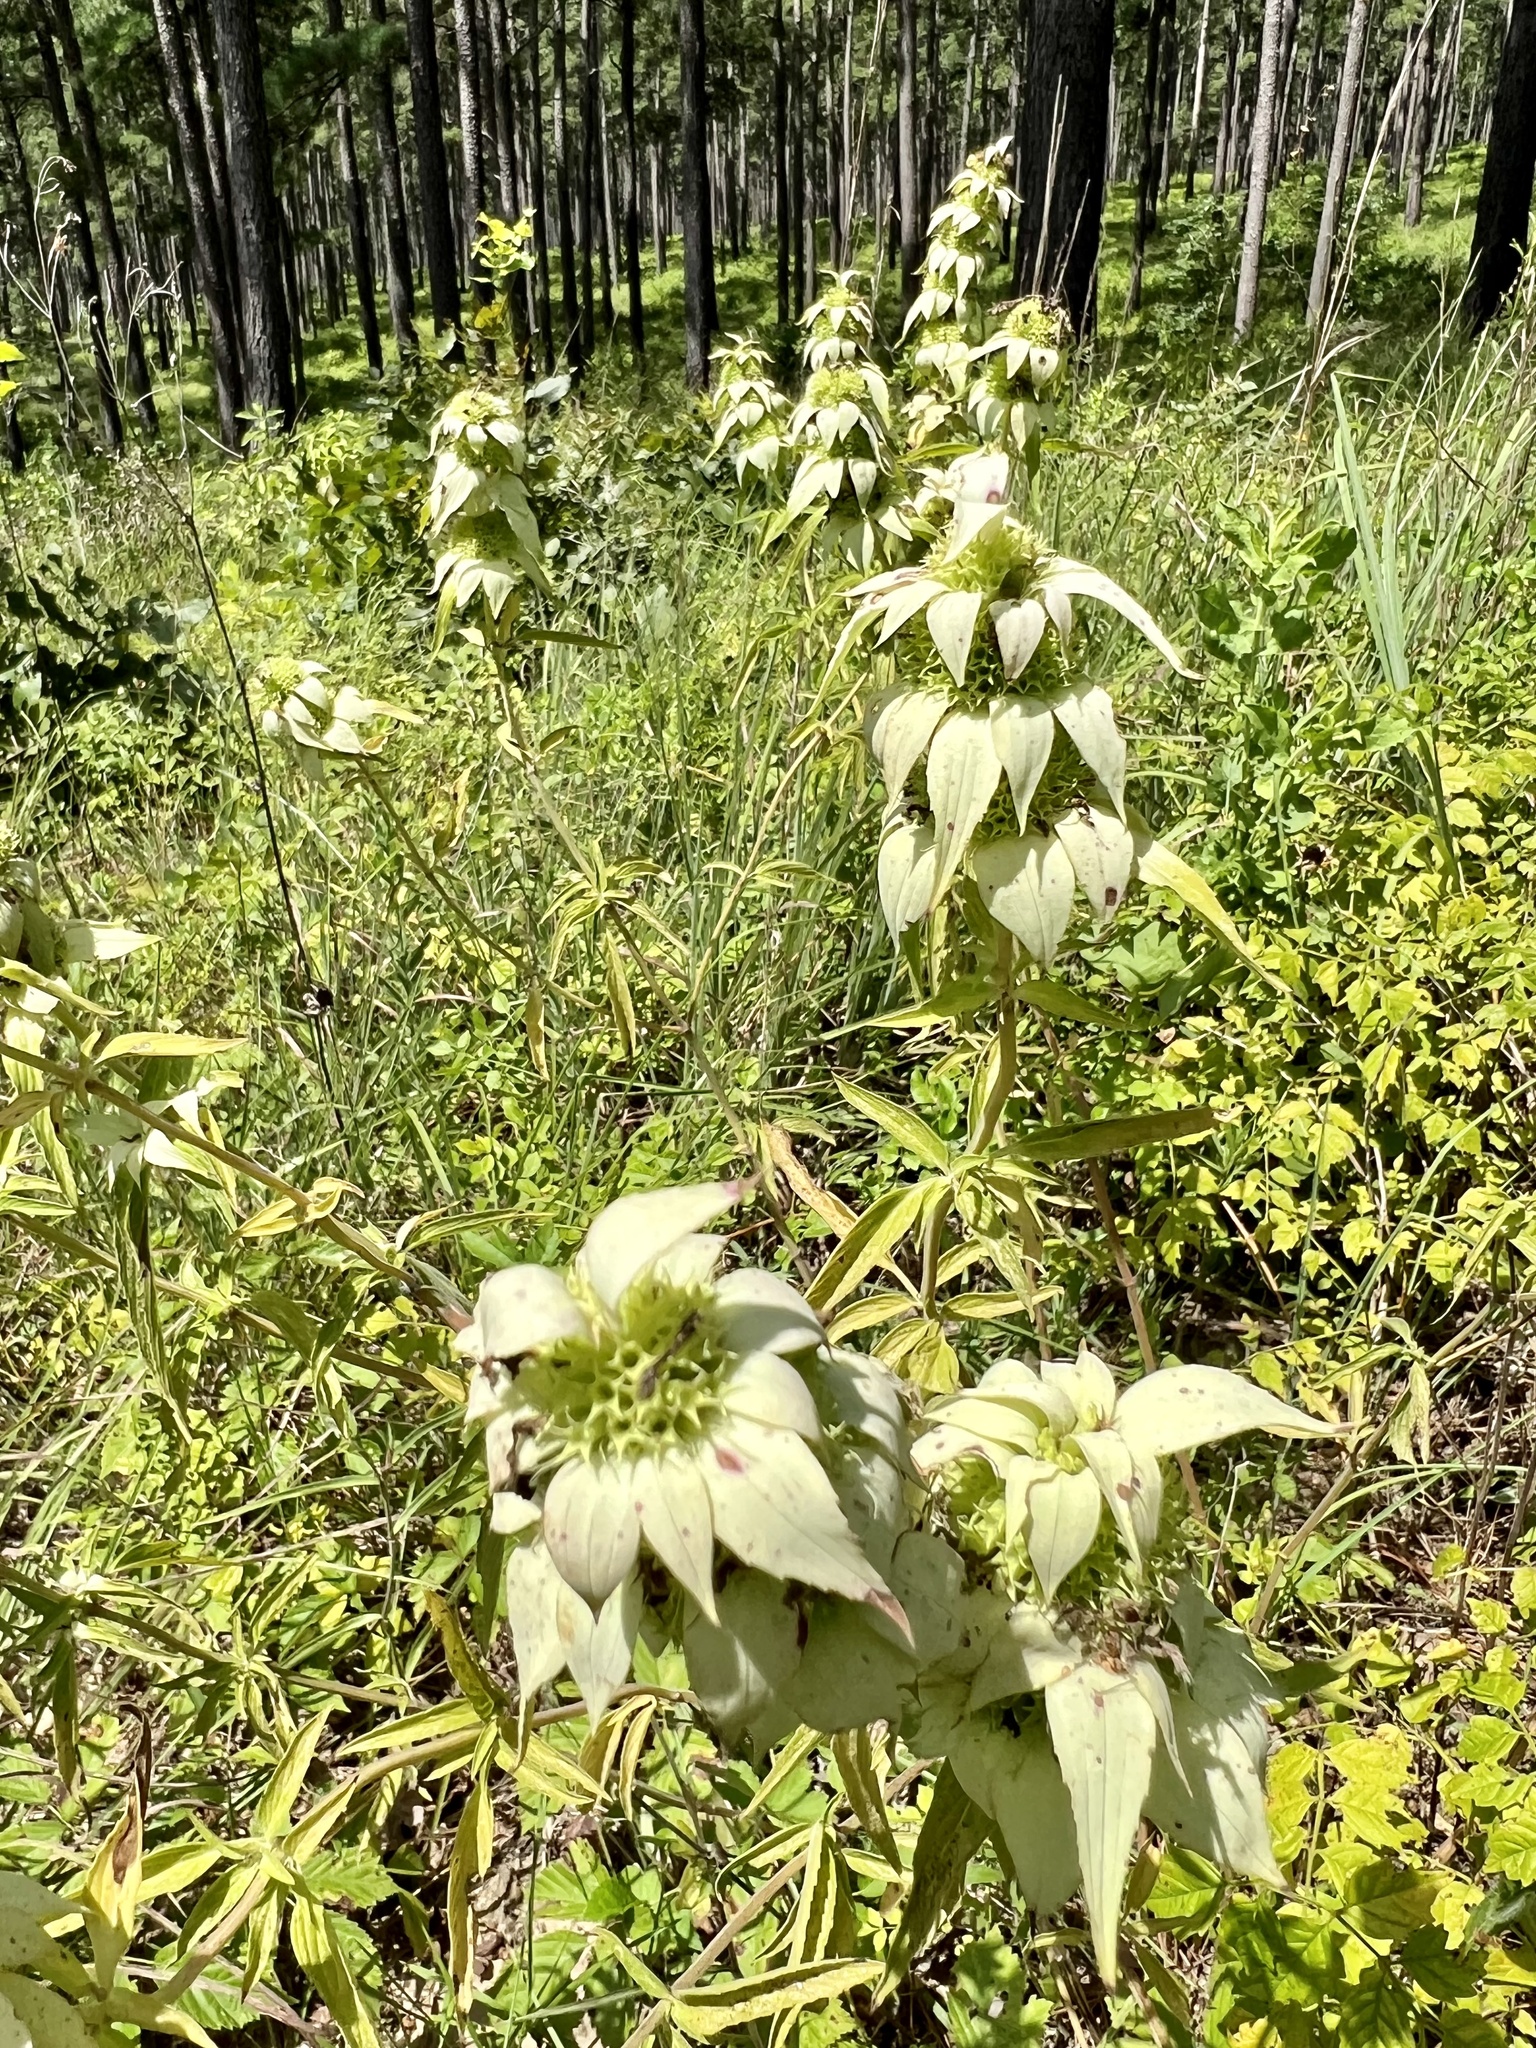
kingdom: Plantae
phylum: Tracheophyta
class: Magnoliopsida
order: Lamiales
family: Lamiaceae
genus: Monarda
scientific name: Monarda punctata
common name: Dotted monarda
